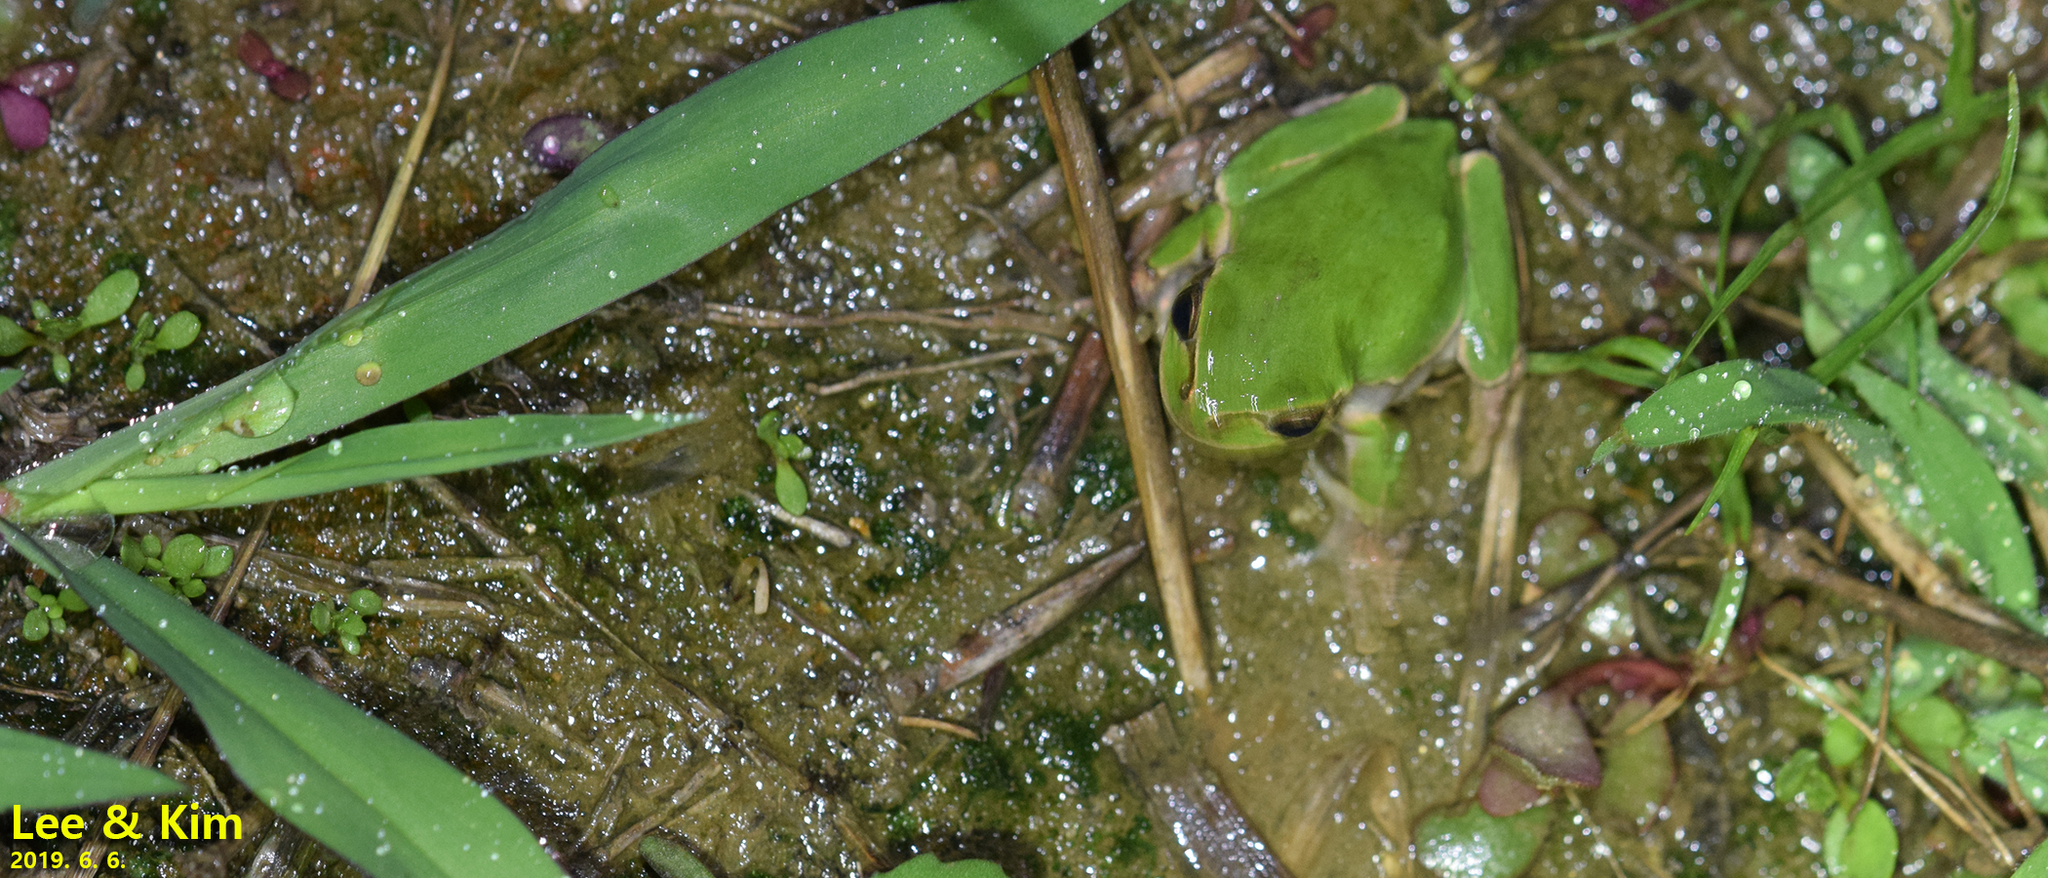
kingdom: Animalia
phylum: Chordata
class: Amphibia
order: Anura
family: Hylidae
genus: Dryophytes
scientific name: Dryophytes japonicus
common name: Japanese treefrog
